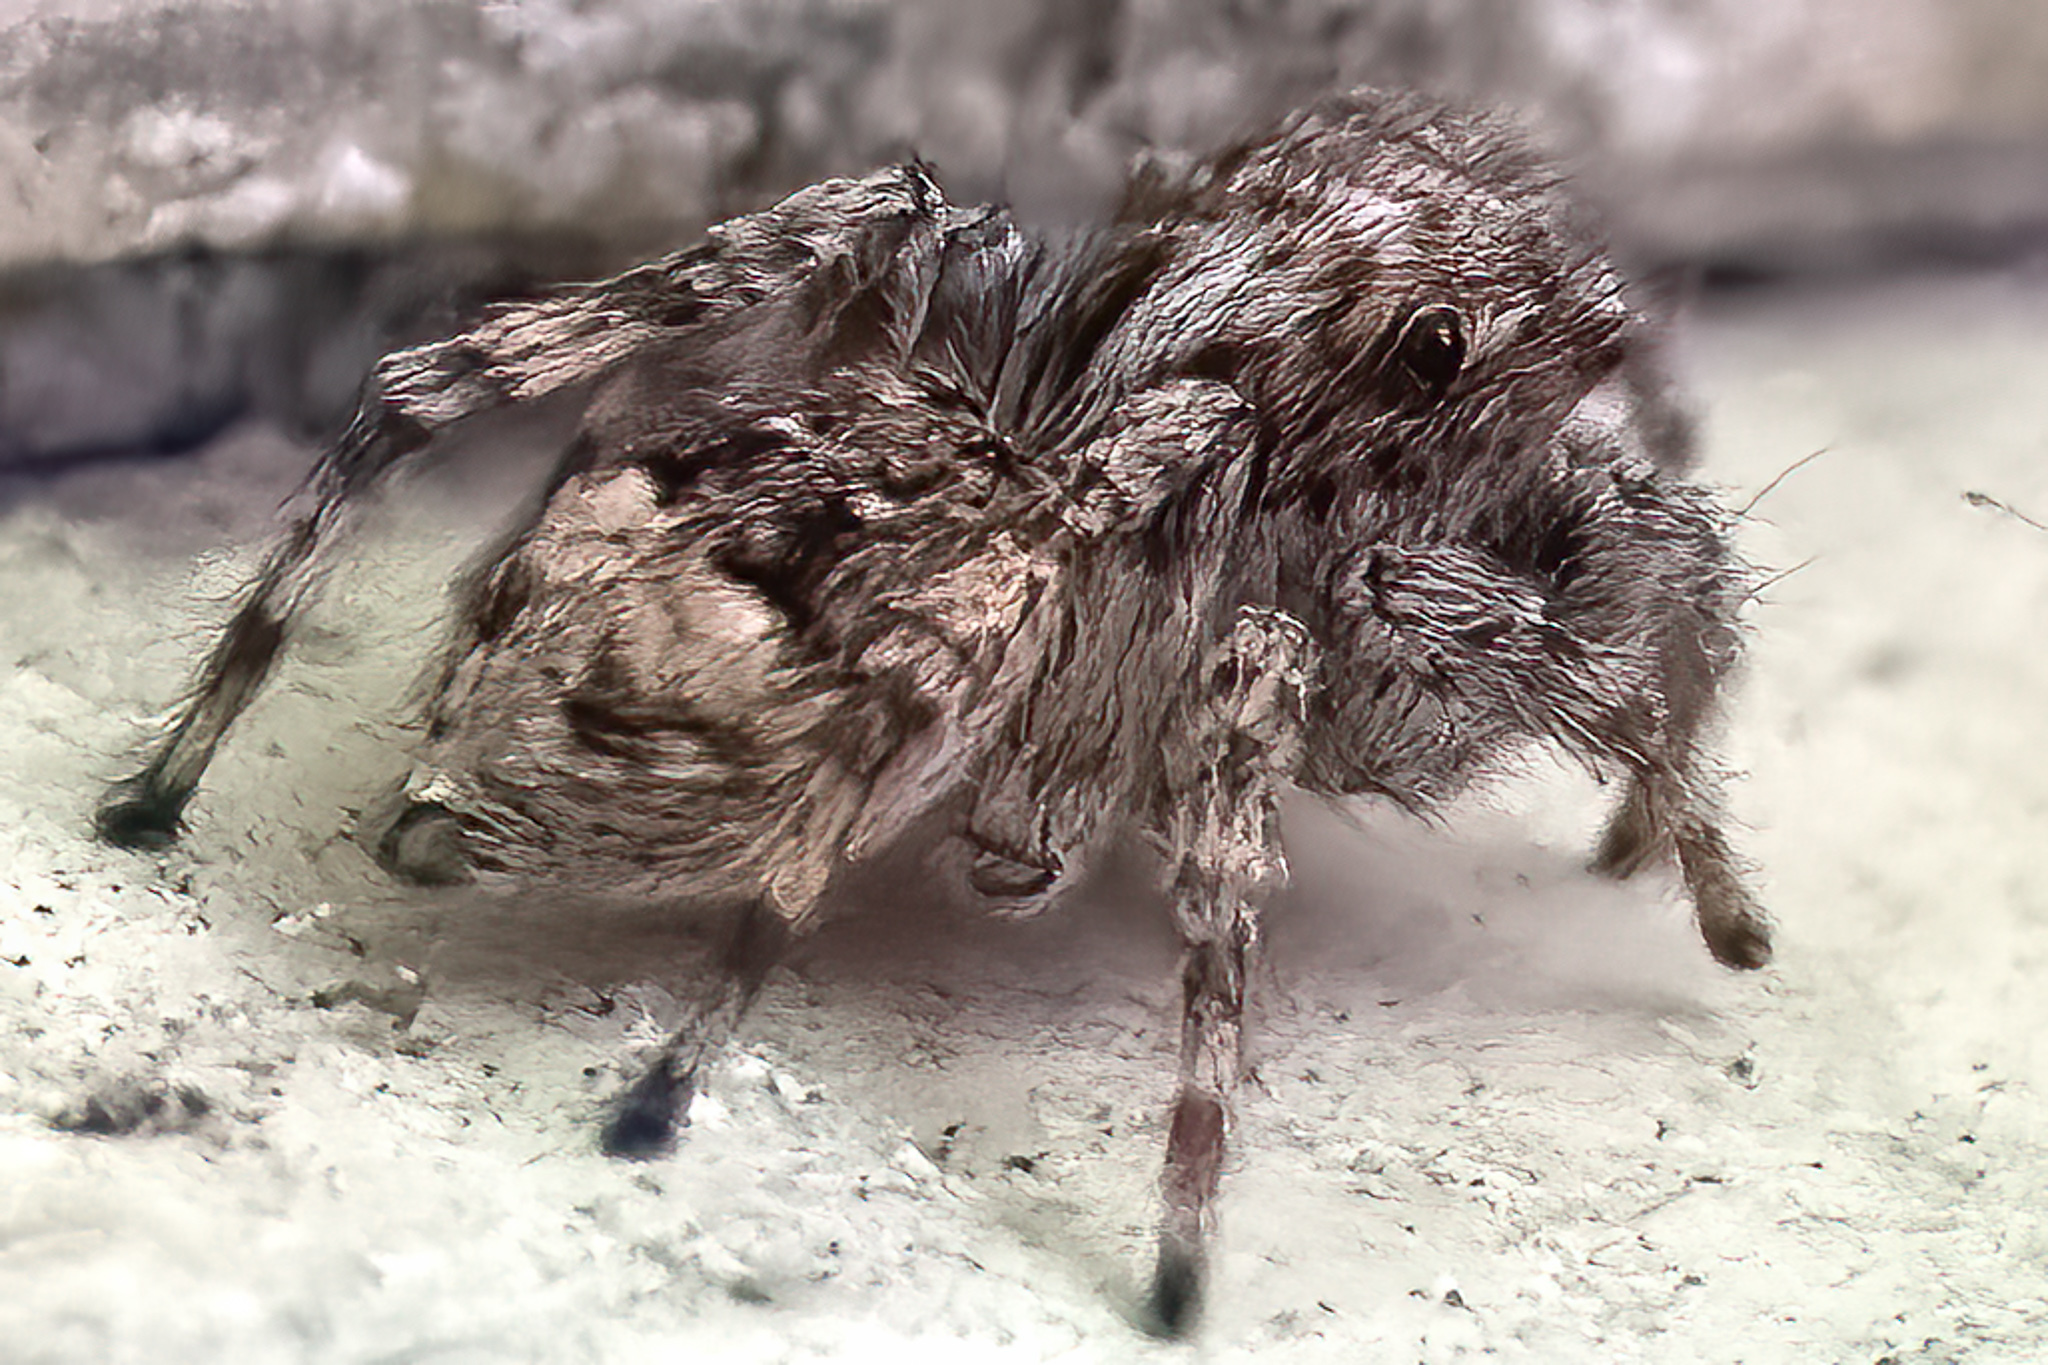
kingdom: Animalia
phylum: Arthropoda
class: Arachnida
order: Araneae
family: Salticidae
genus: Attulus
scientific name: Attulus fasciger
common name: Asiatic wall jumping spider
